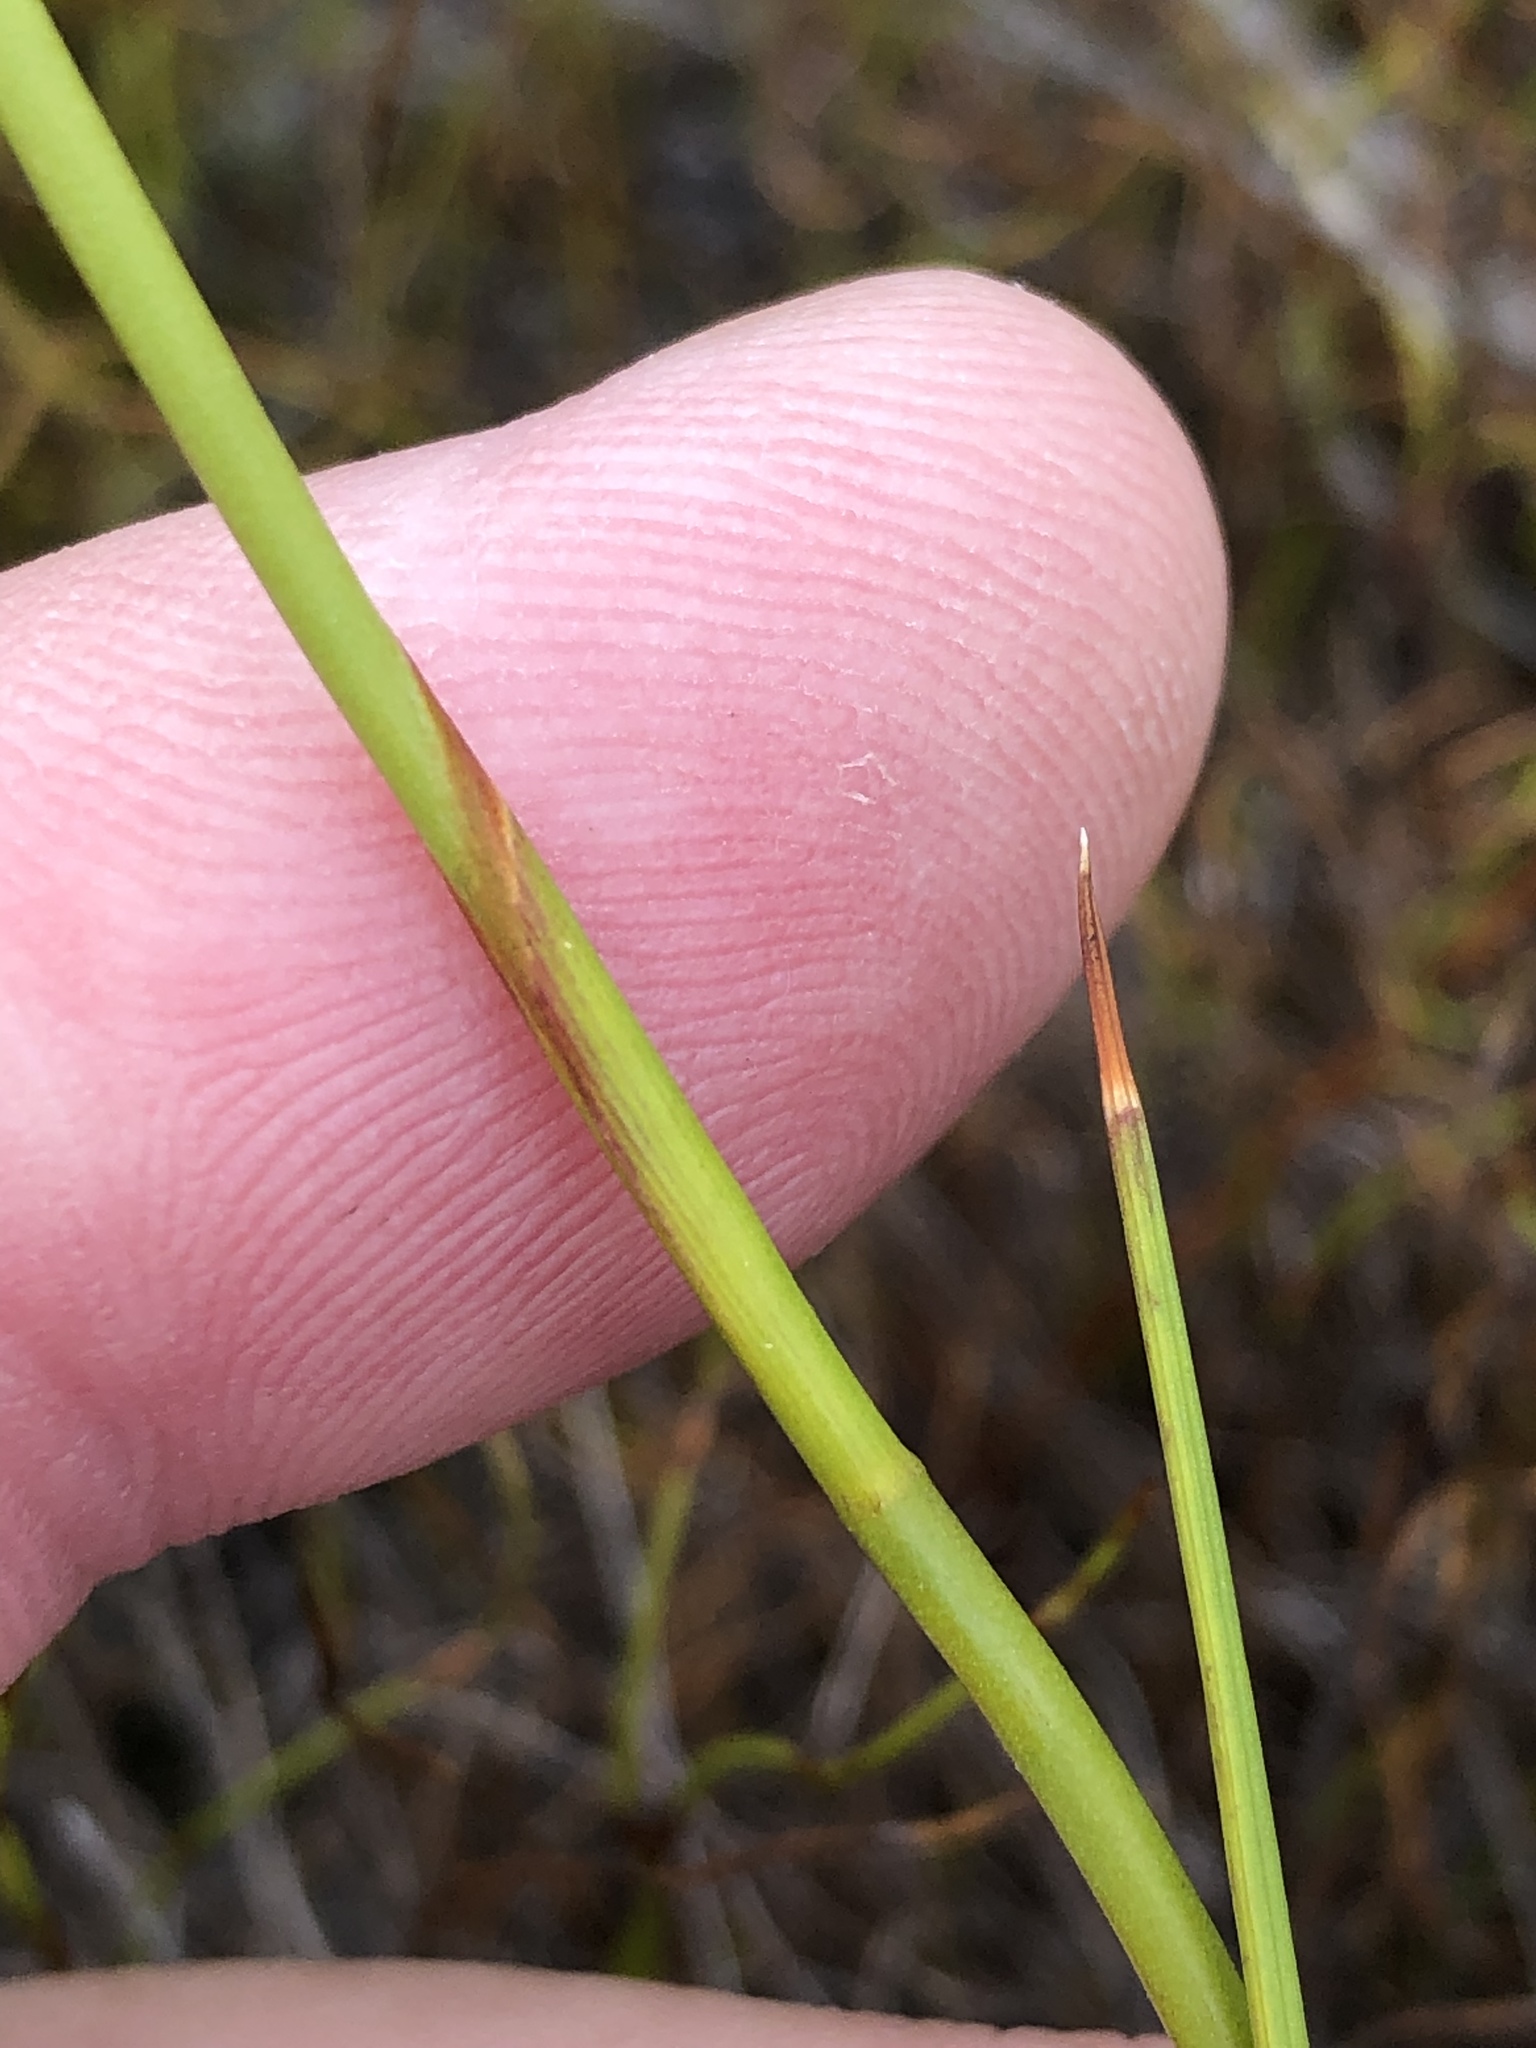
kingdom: Plantae
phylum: Tracheophyta
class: Liliopsida
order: Asparagales
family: Iridaceae
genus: Thereianthus
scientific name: Thereianthus bracteolatus
